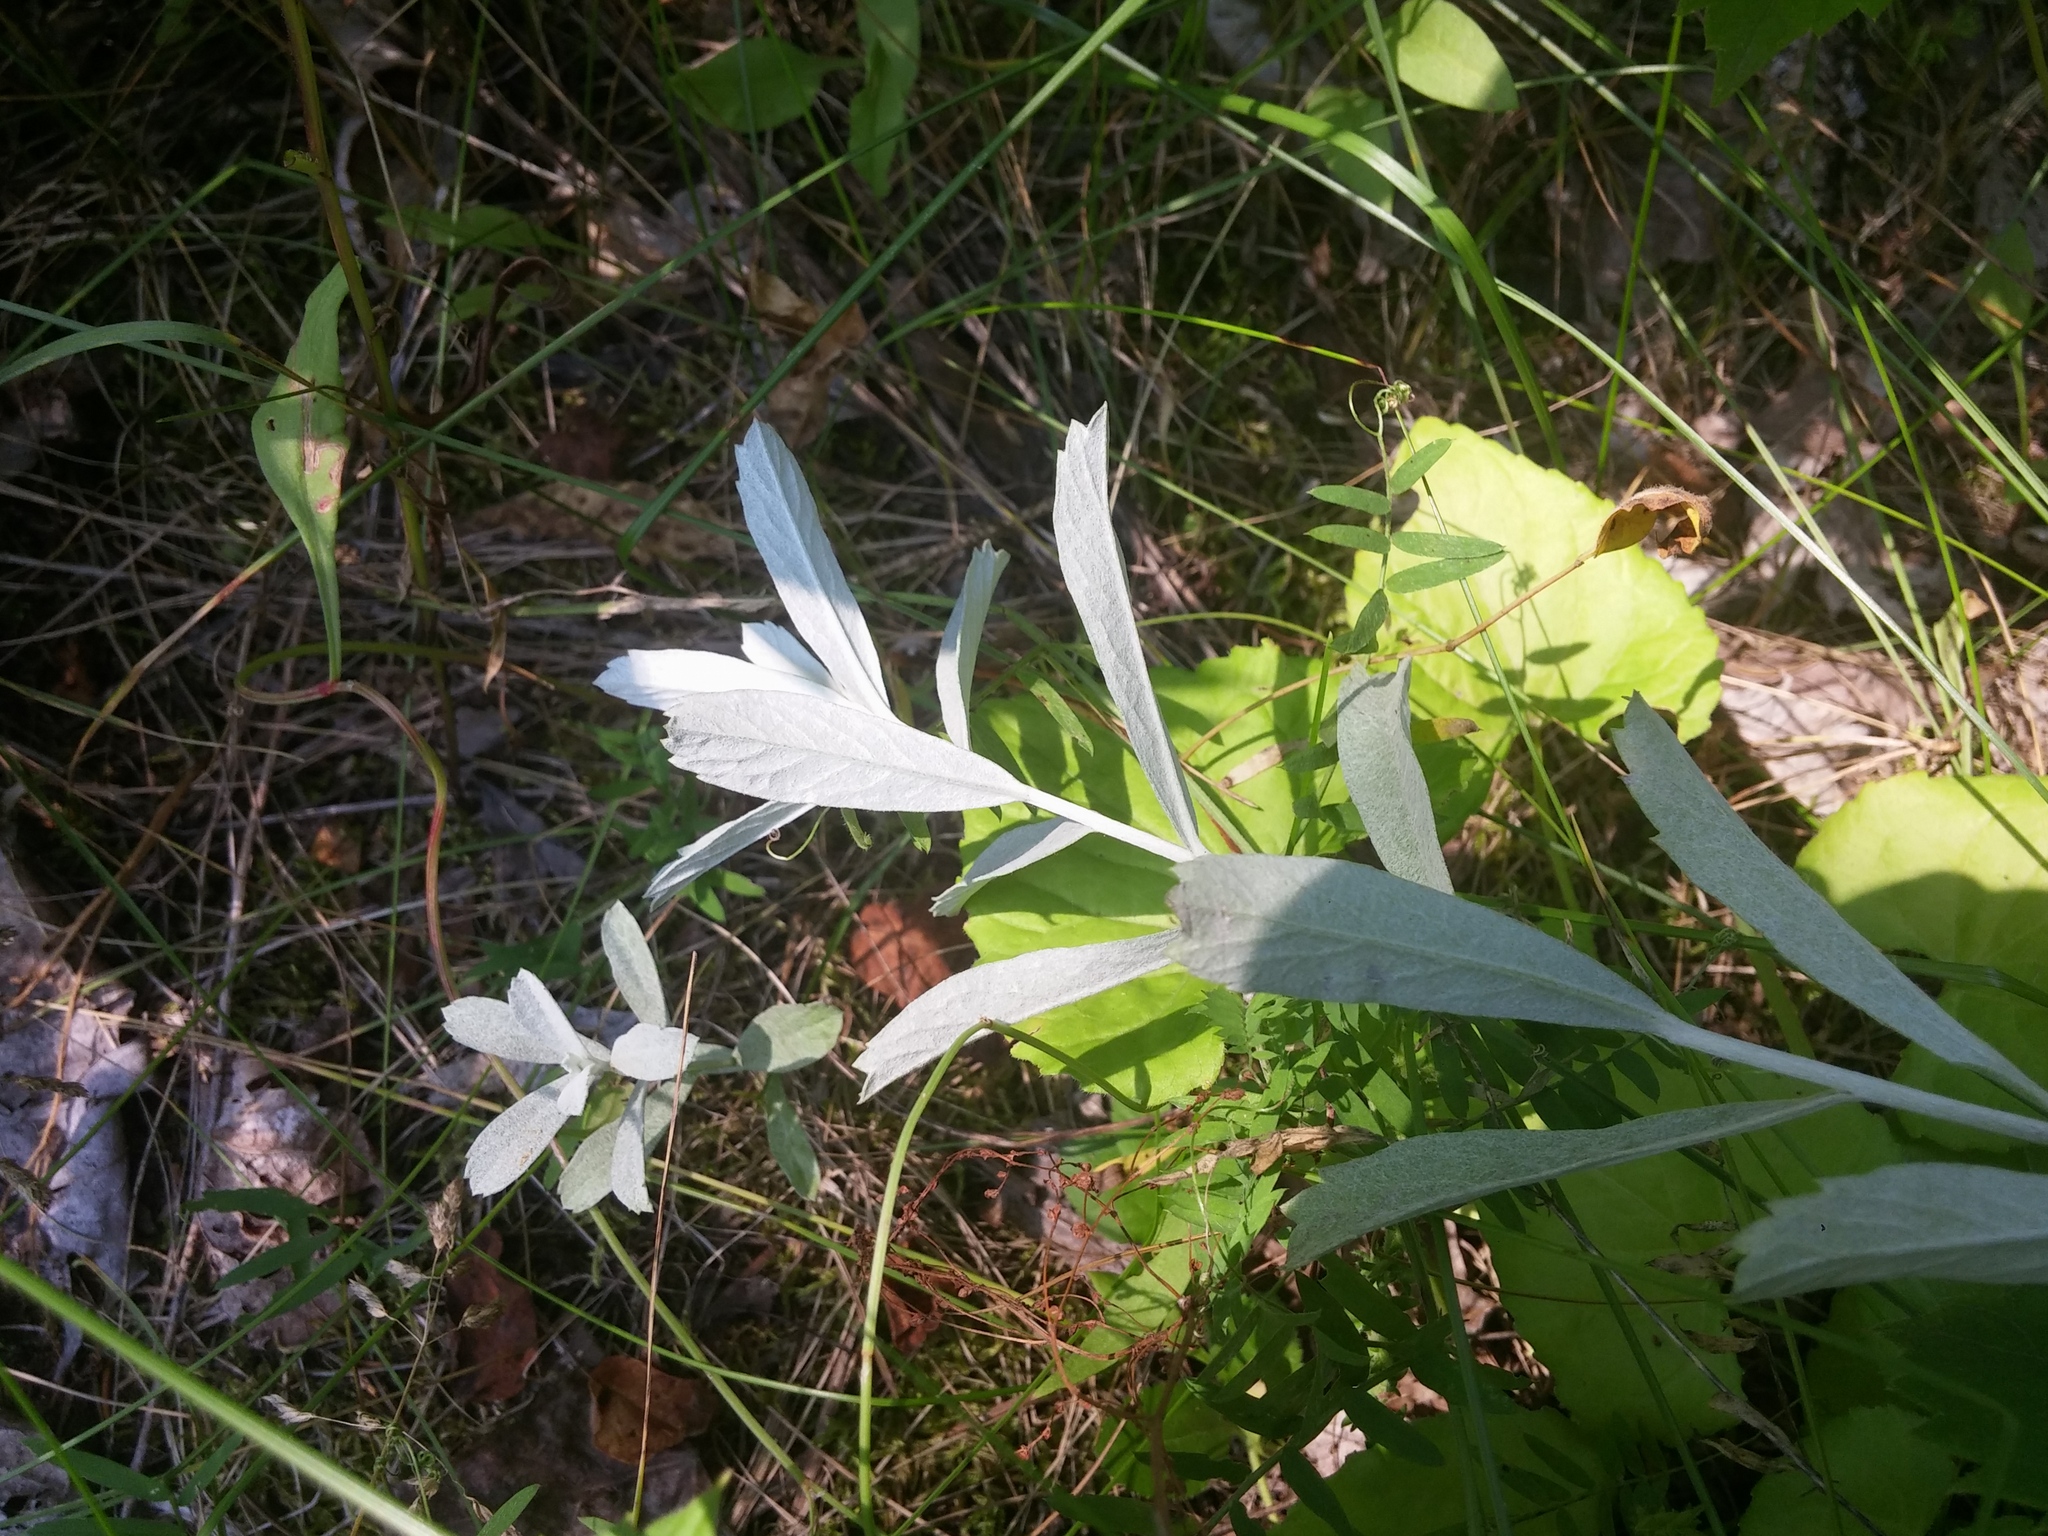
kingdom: Plantae
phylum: Tracheophyta
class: Magnoliopsida
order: Asterales
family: Asteraceae
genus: Artemisia
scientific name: Artemisia ludoviciana
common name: Western mugwort
